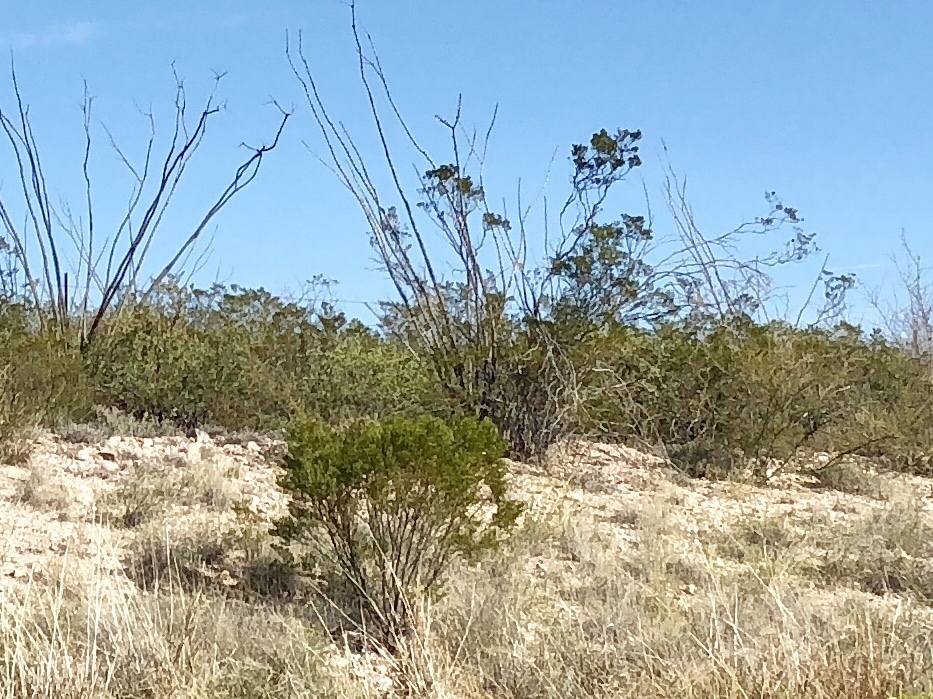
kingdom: Plantae
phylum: Tracheophyta
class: Magnoliopsida
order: Zygophyllales
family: Zygophyllaceae
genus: Larrea
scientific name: Larrea tridentata
